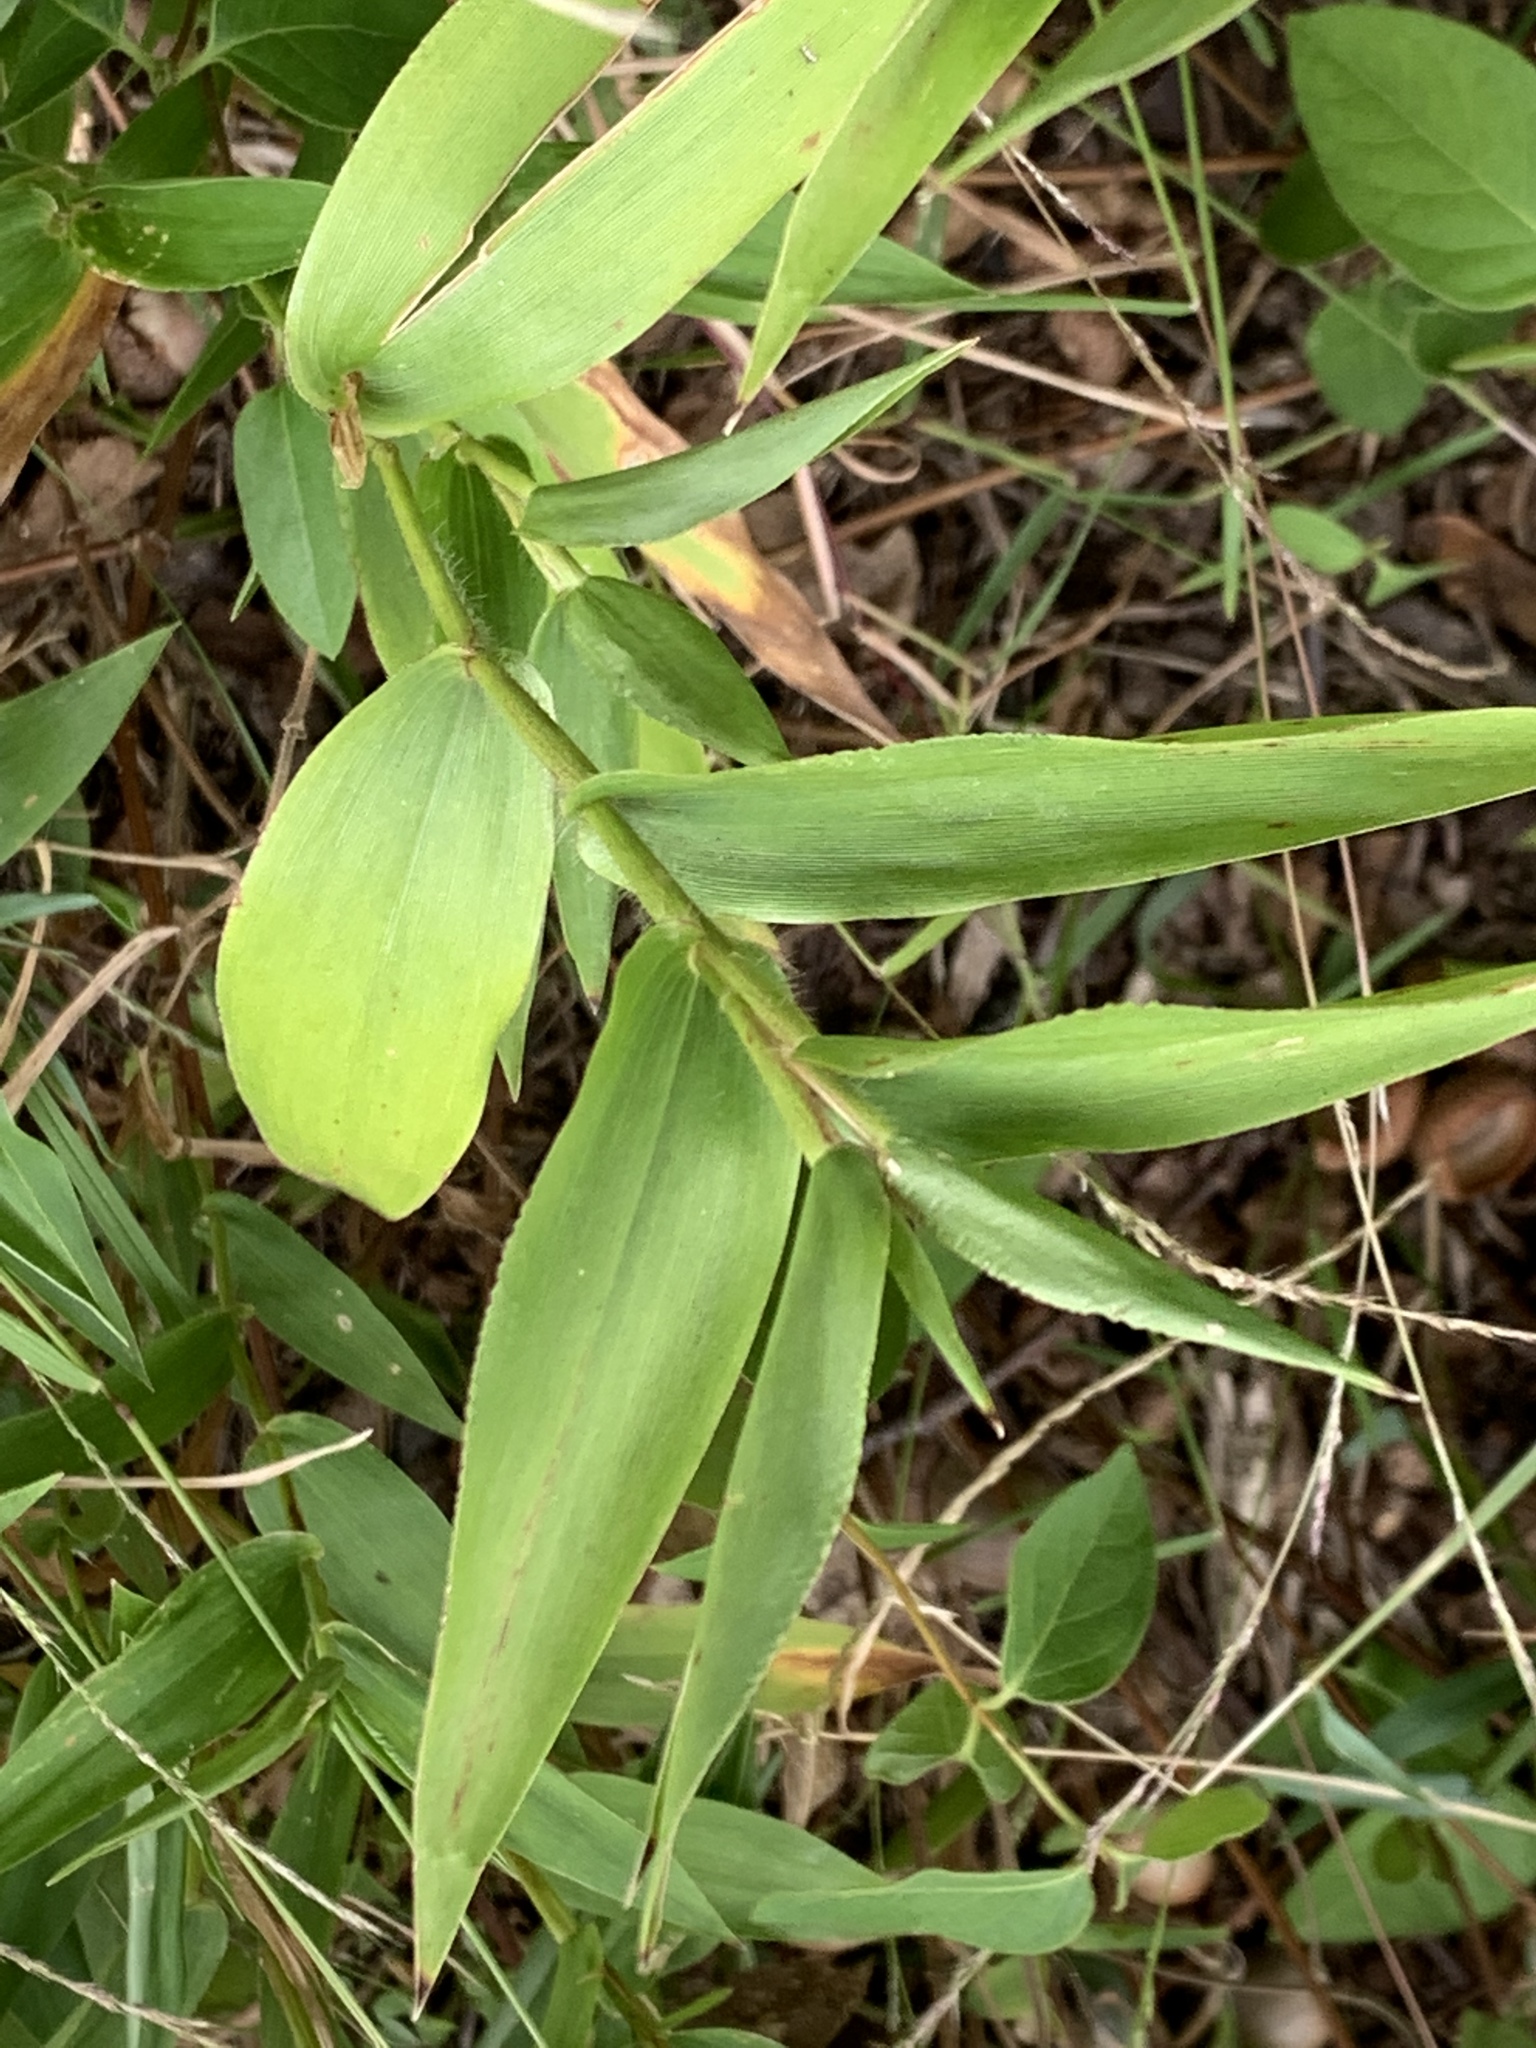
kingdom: Plantae
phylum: Tracheophyta
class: Liliopsida
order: Poales
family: Poaceae
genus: Dichanthelium
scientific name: Dichanthelium clandestinum
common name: Deer-tongue grass
